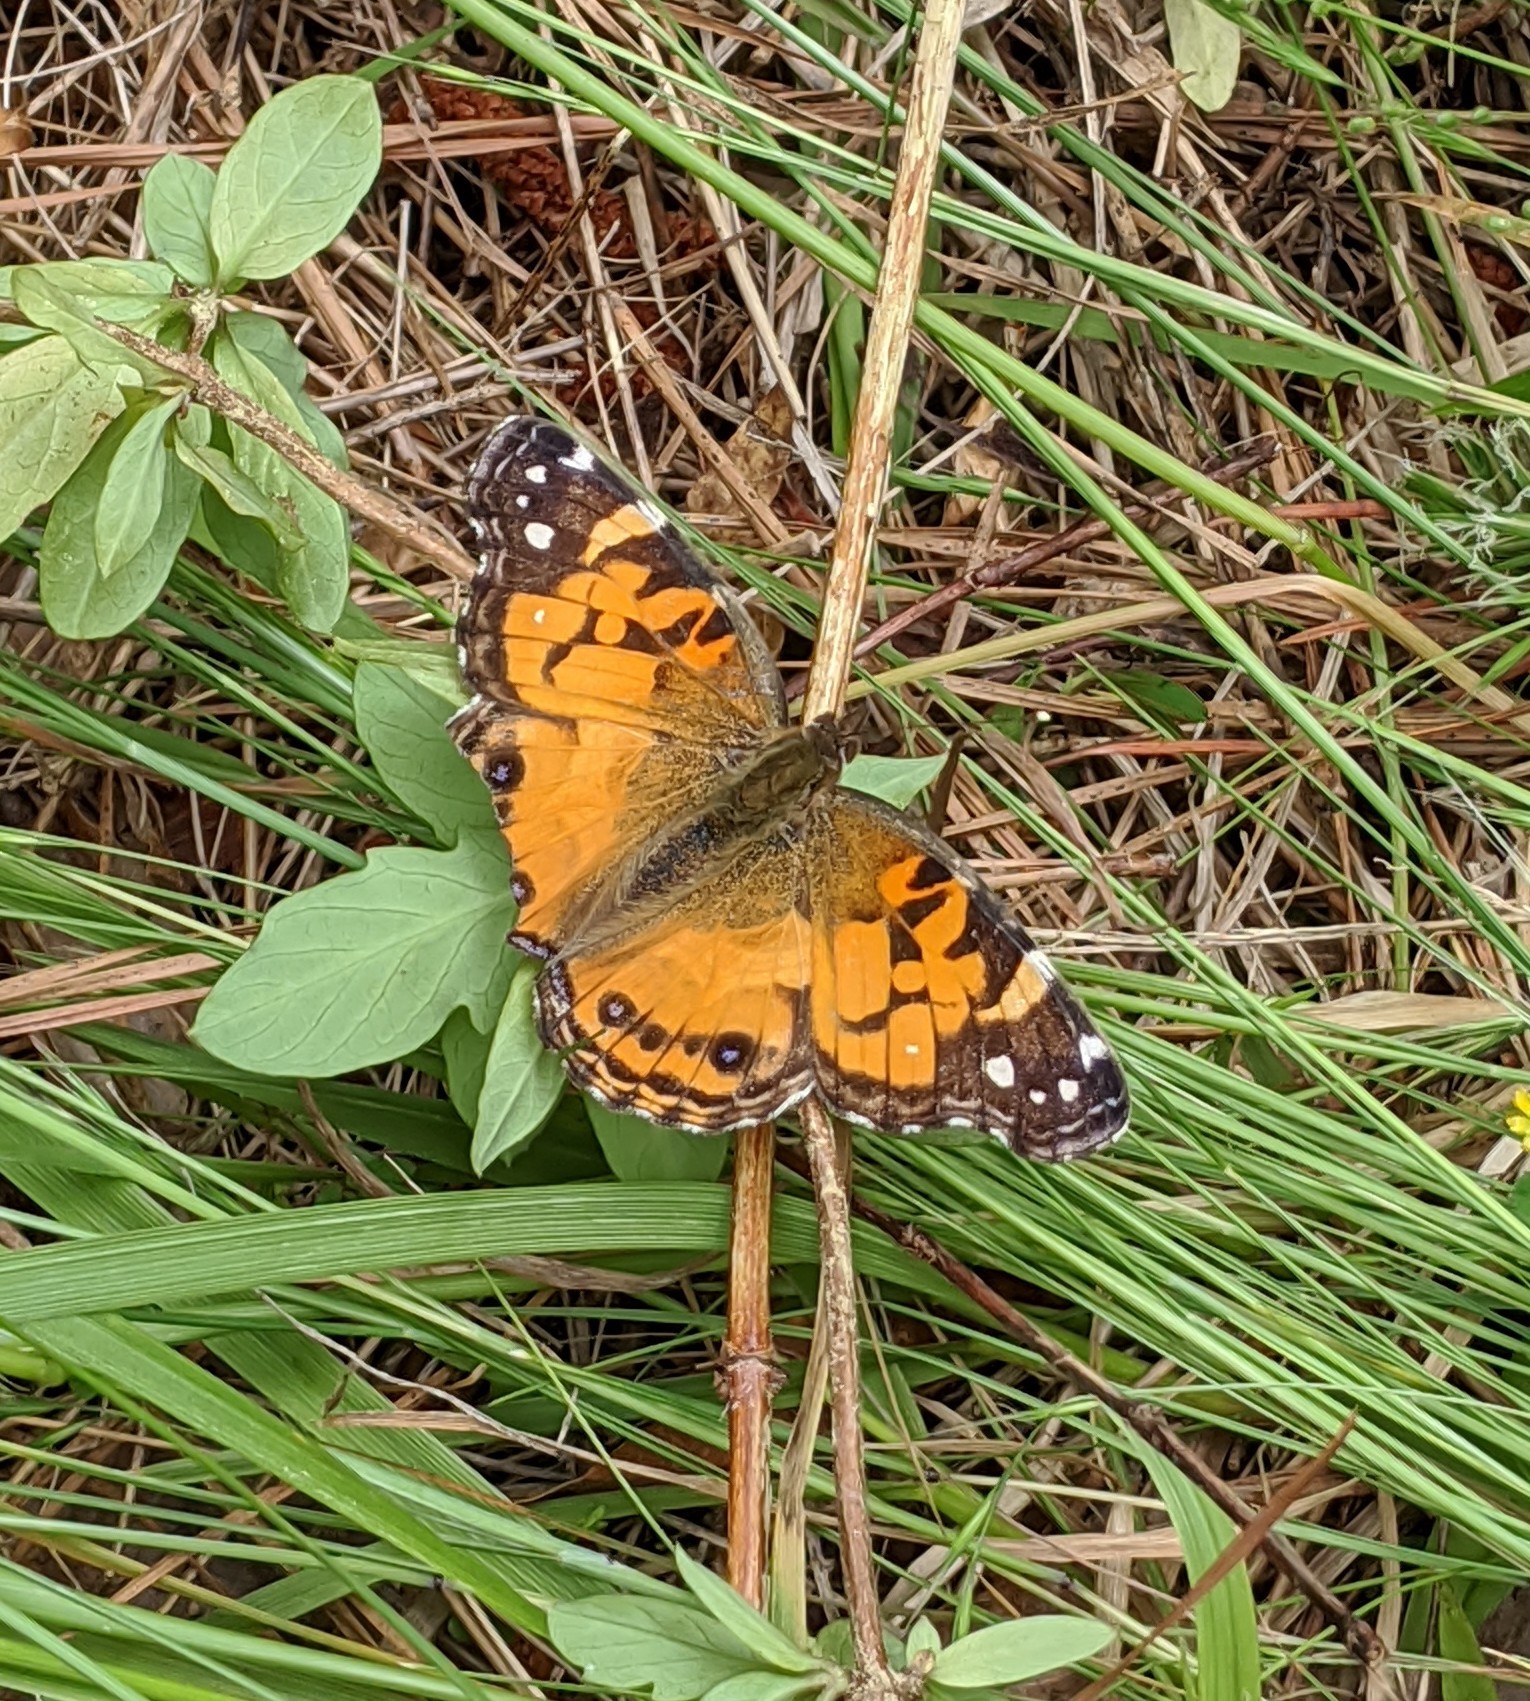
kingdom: Animalia
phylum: Arthropoda
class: Insecta
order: Lepidoptera
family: Nymphalidae
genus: Vanessa
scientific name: Vanessa virginiensis
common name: American lady
